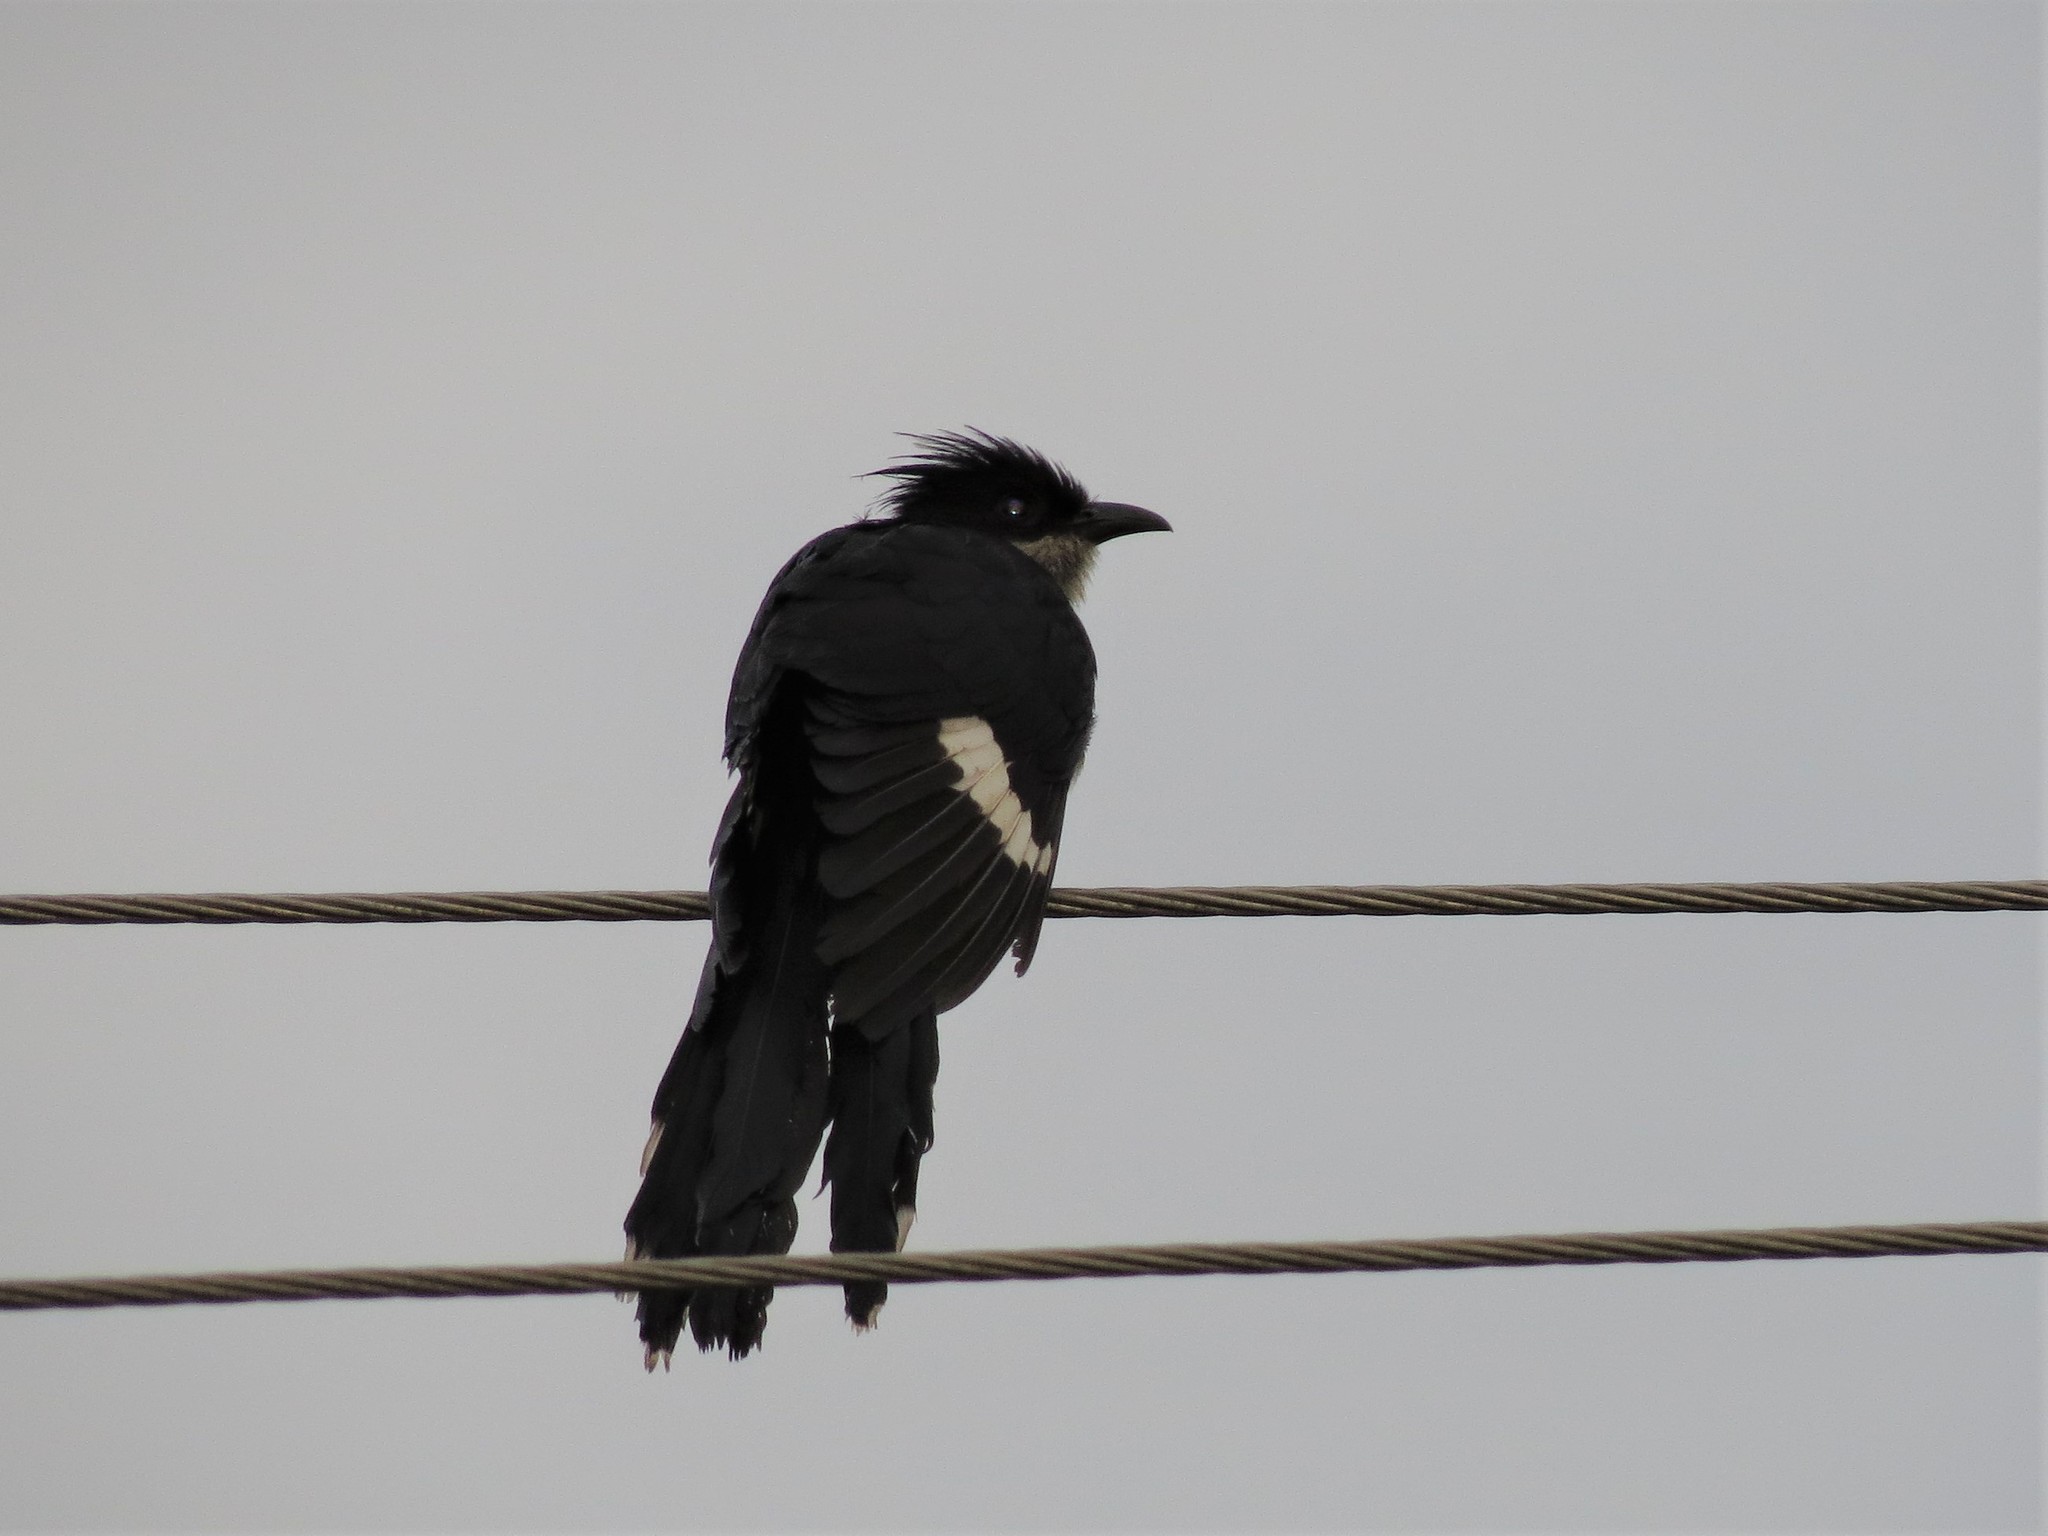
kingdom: Animalia
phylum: Chordata
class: Aves
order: Cuculiformes
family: Cuculidae
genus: Clamator
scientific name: Clamator jacobinus
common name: Jacobin cuckoo
